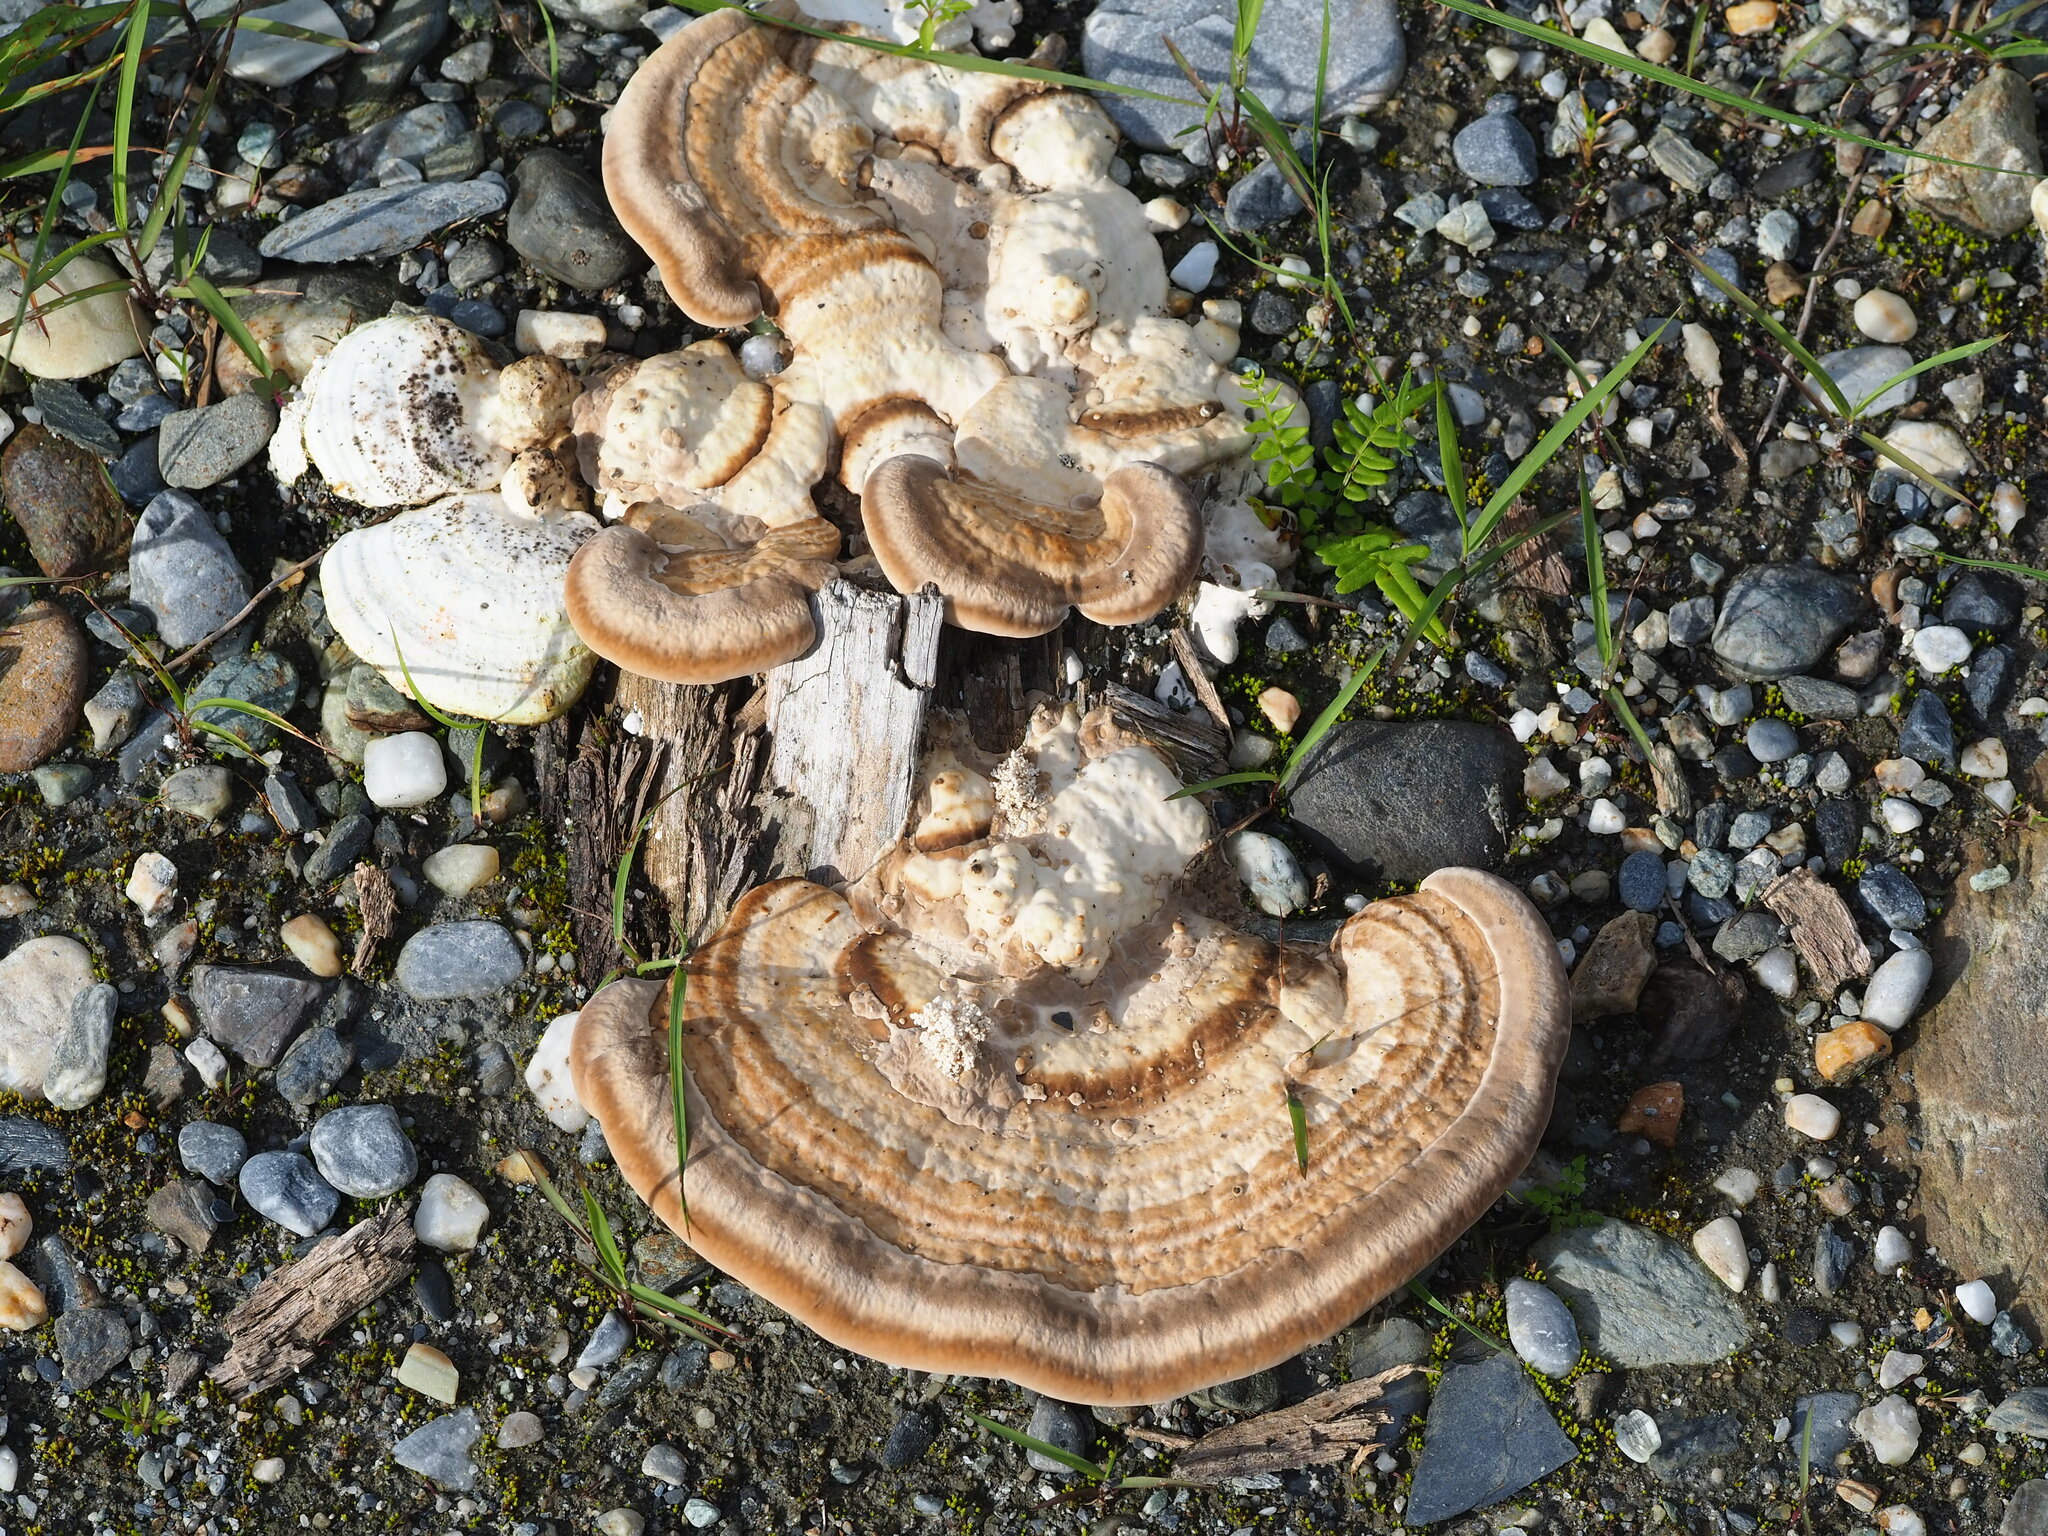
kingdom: Fungi
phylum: Basidiomycota
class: Agaricomycetes
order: Polyporales
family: Polyporaceae
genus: Trametes
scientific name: Trametes cubensis
